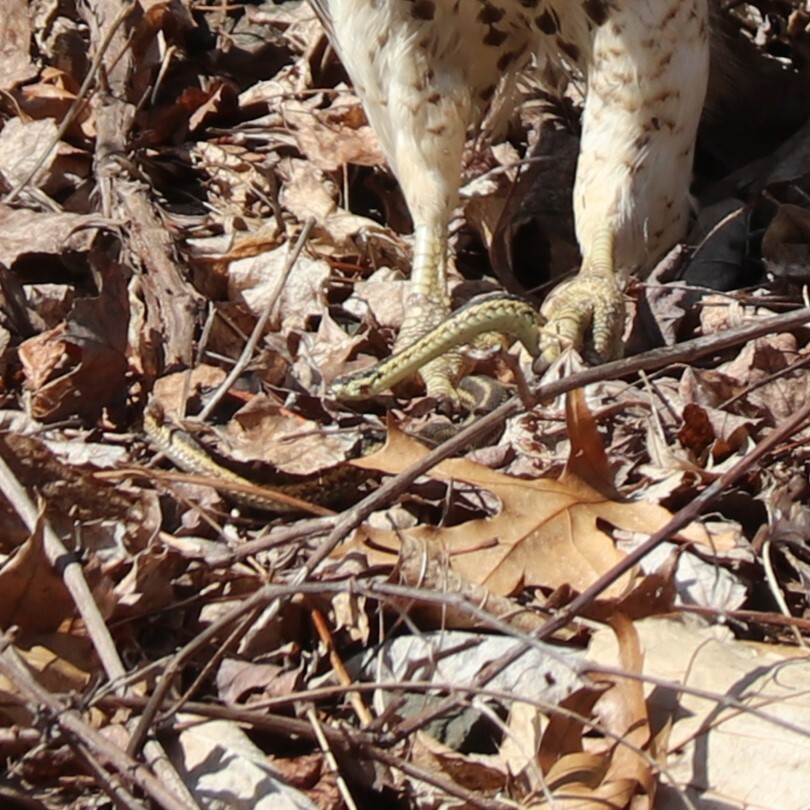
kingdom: Animalia
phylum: Chordata
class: Squamata
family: Colubridae
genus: Thamnophis
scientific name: Thamnophis sirtalis
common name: Common garter snake
